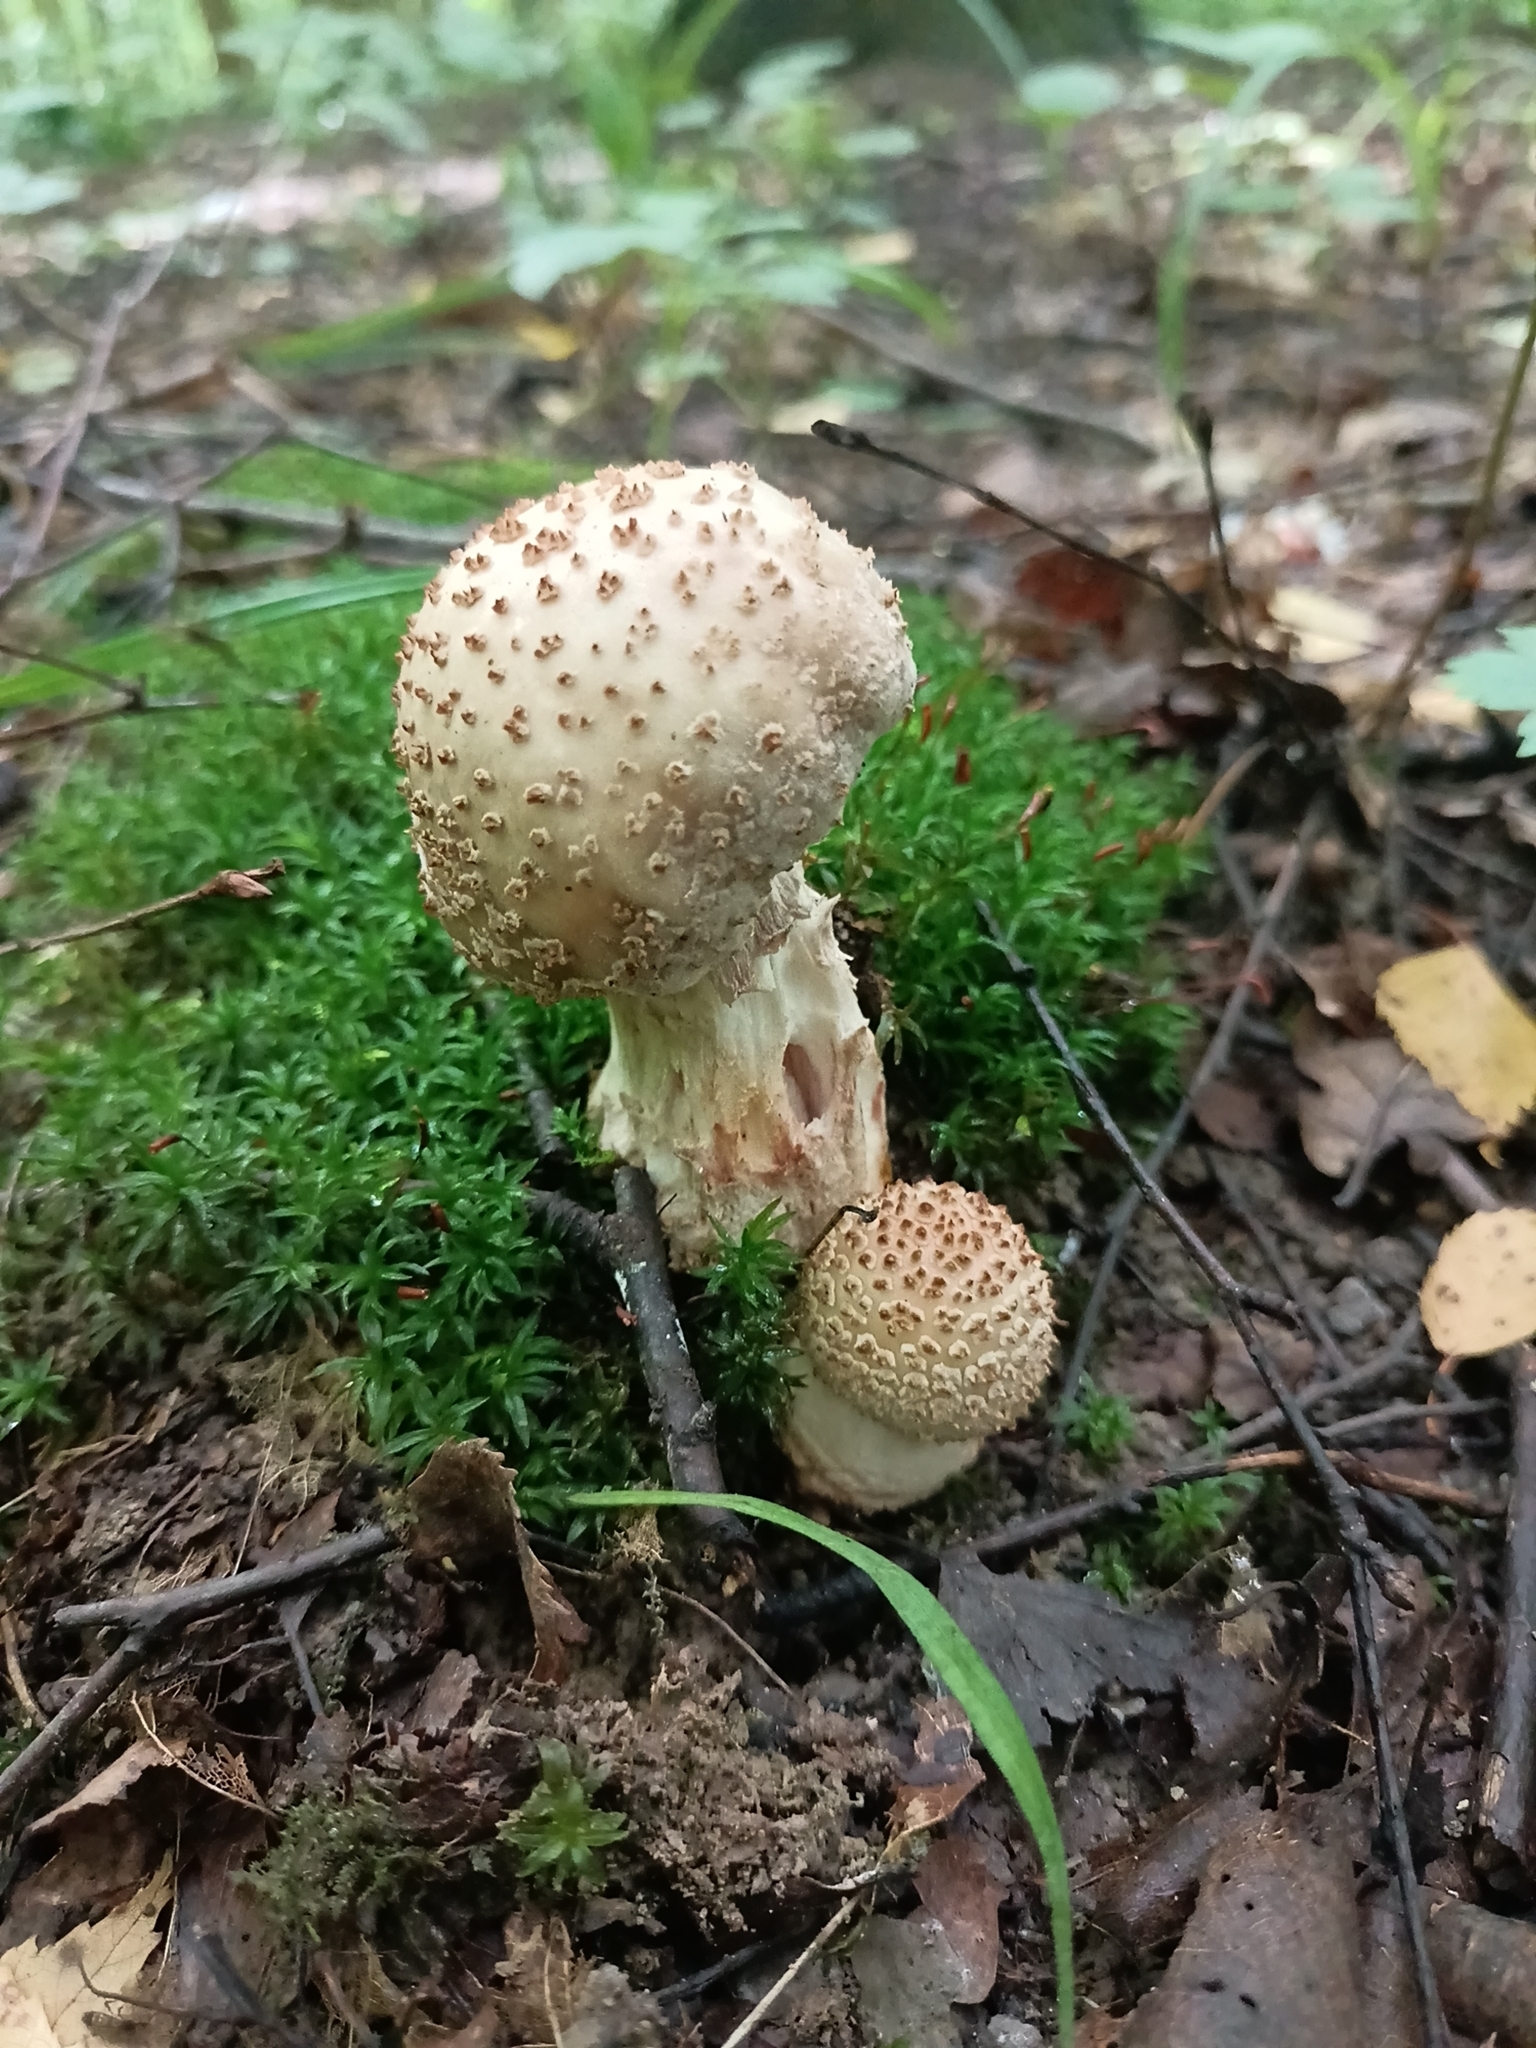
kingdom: Fungi
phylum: Basidiomycota
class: Agaricomycetes
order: Agaricales
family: Amanitaceae
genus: Amanita
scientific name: Amanita rubescens
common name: Blusher
